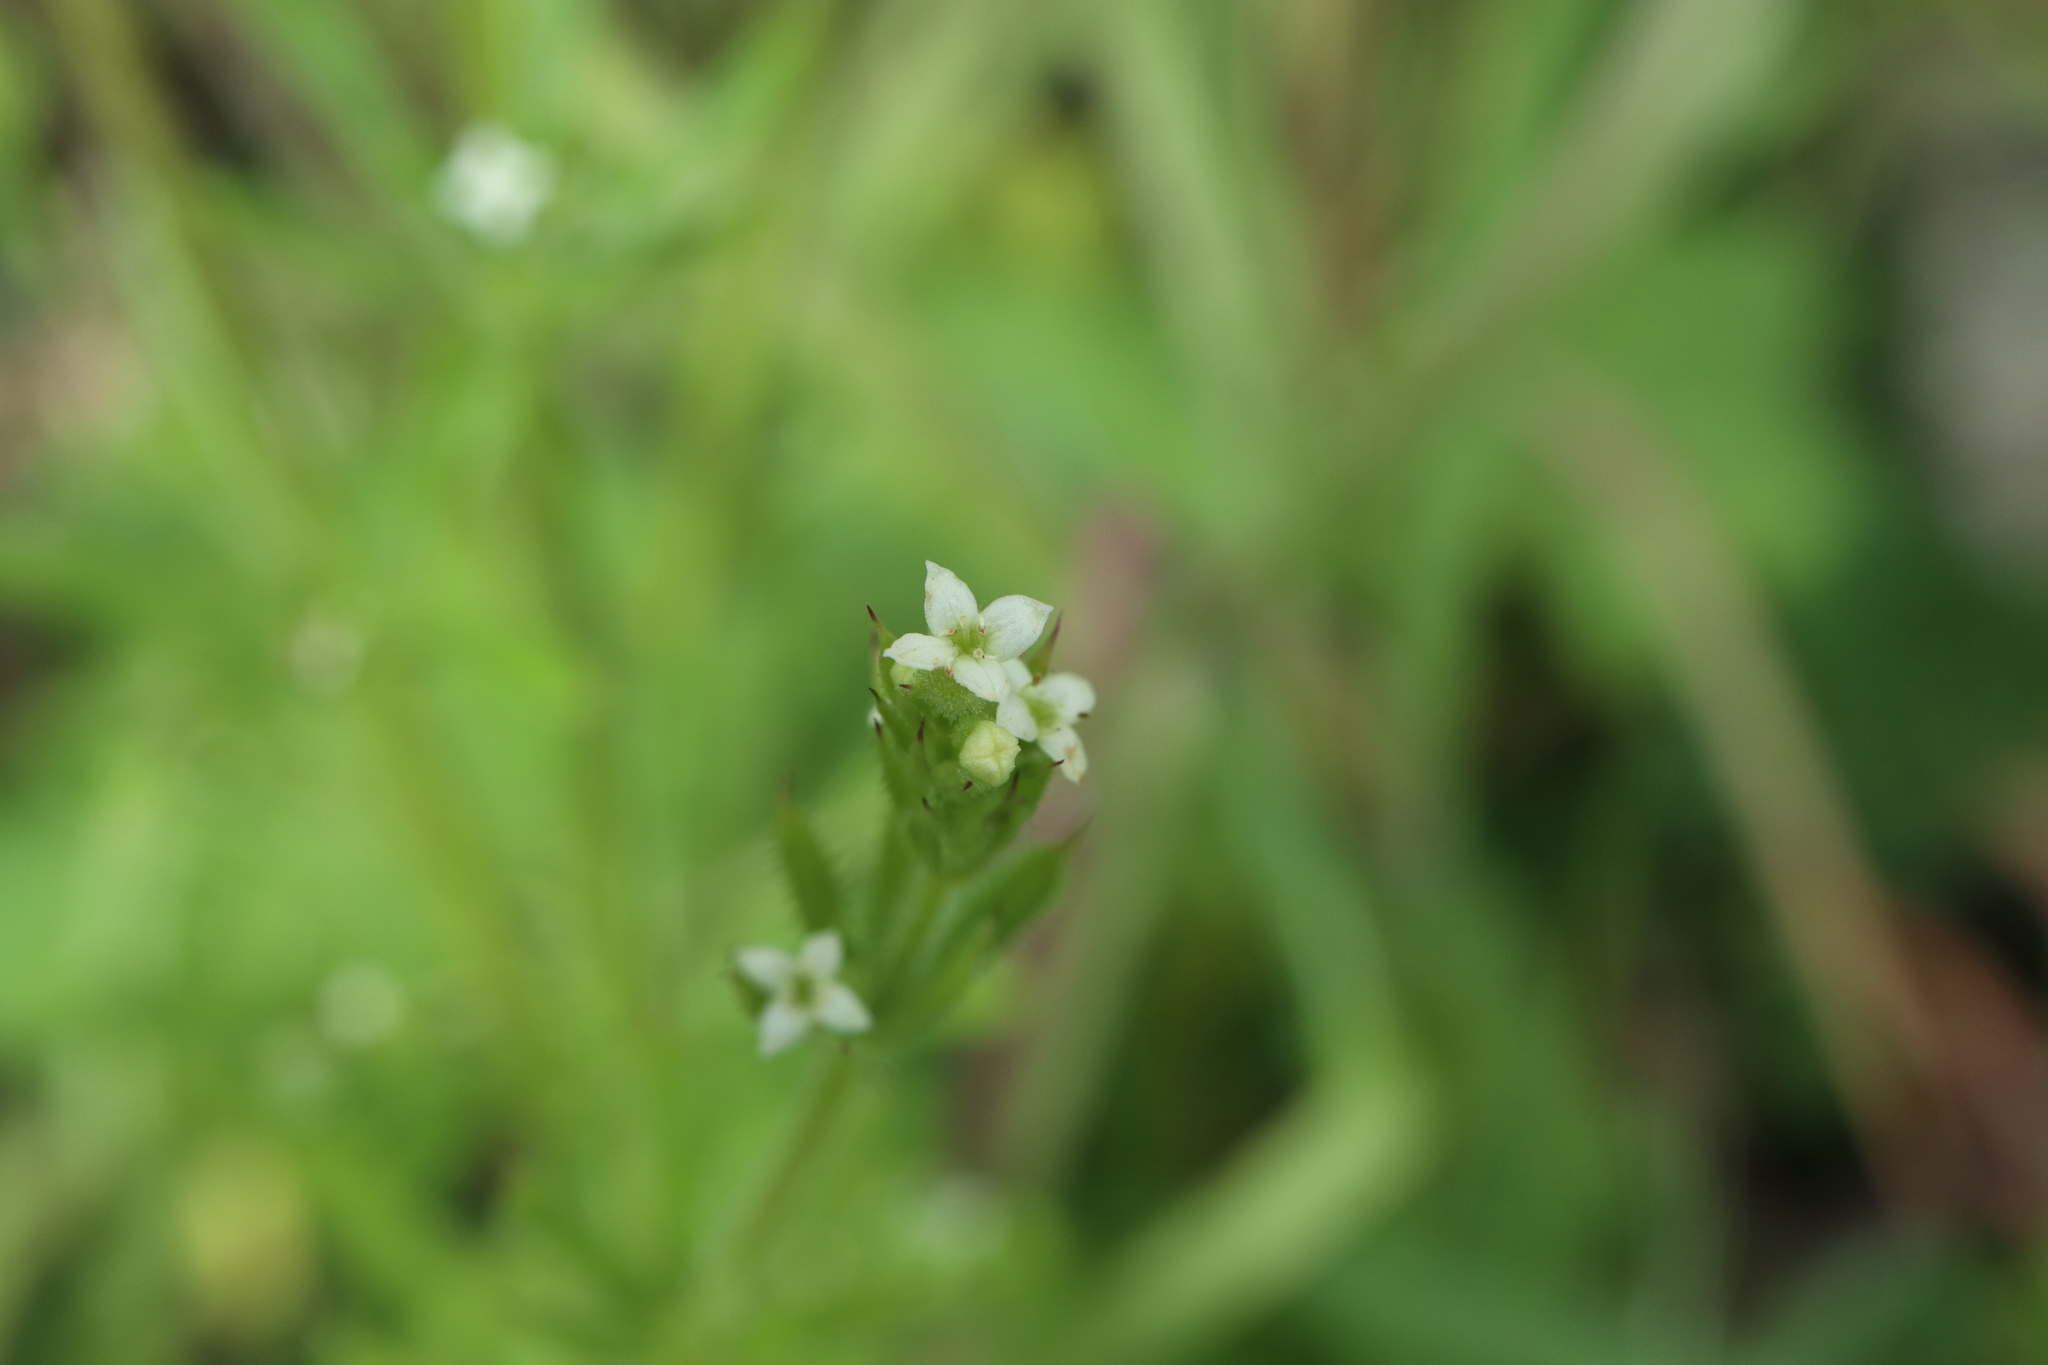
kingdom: Plantae
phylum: Tracheophyta
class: Magnoliopsida
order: Gentianales
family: Rubiaceae
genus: Galium
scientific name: Galium aparine
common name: Cleavers
